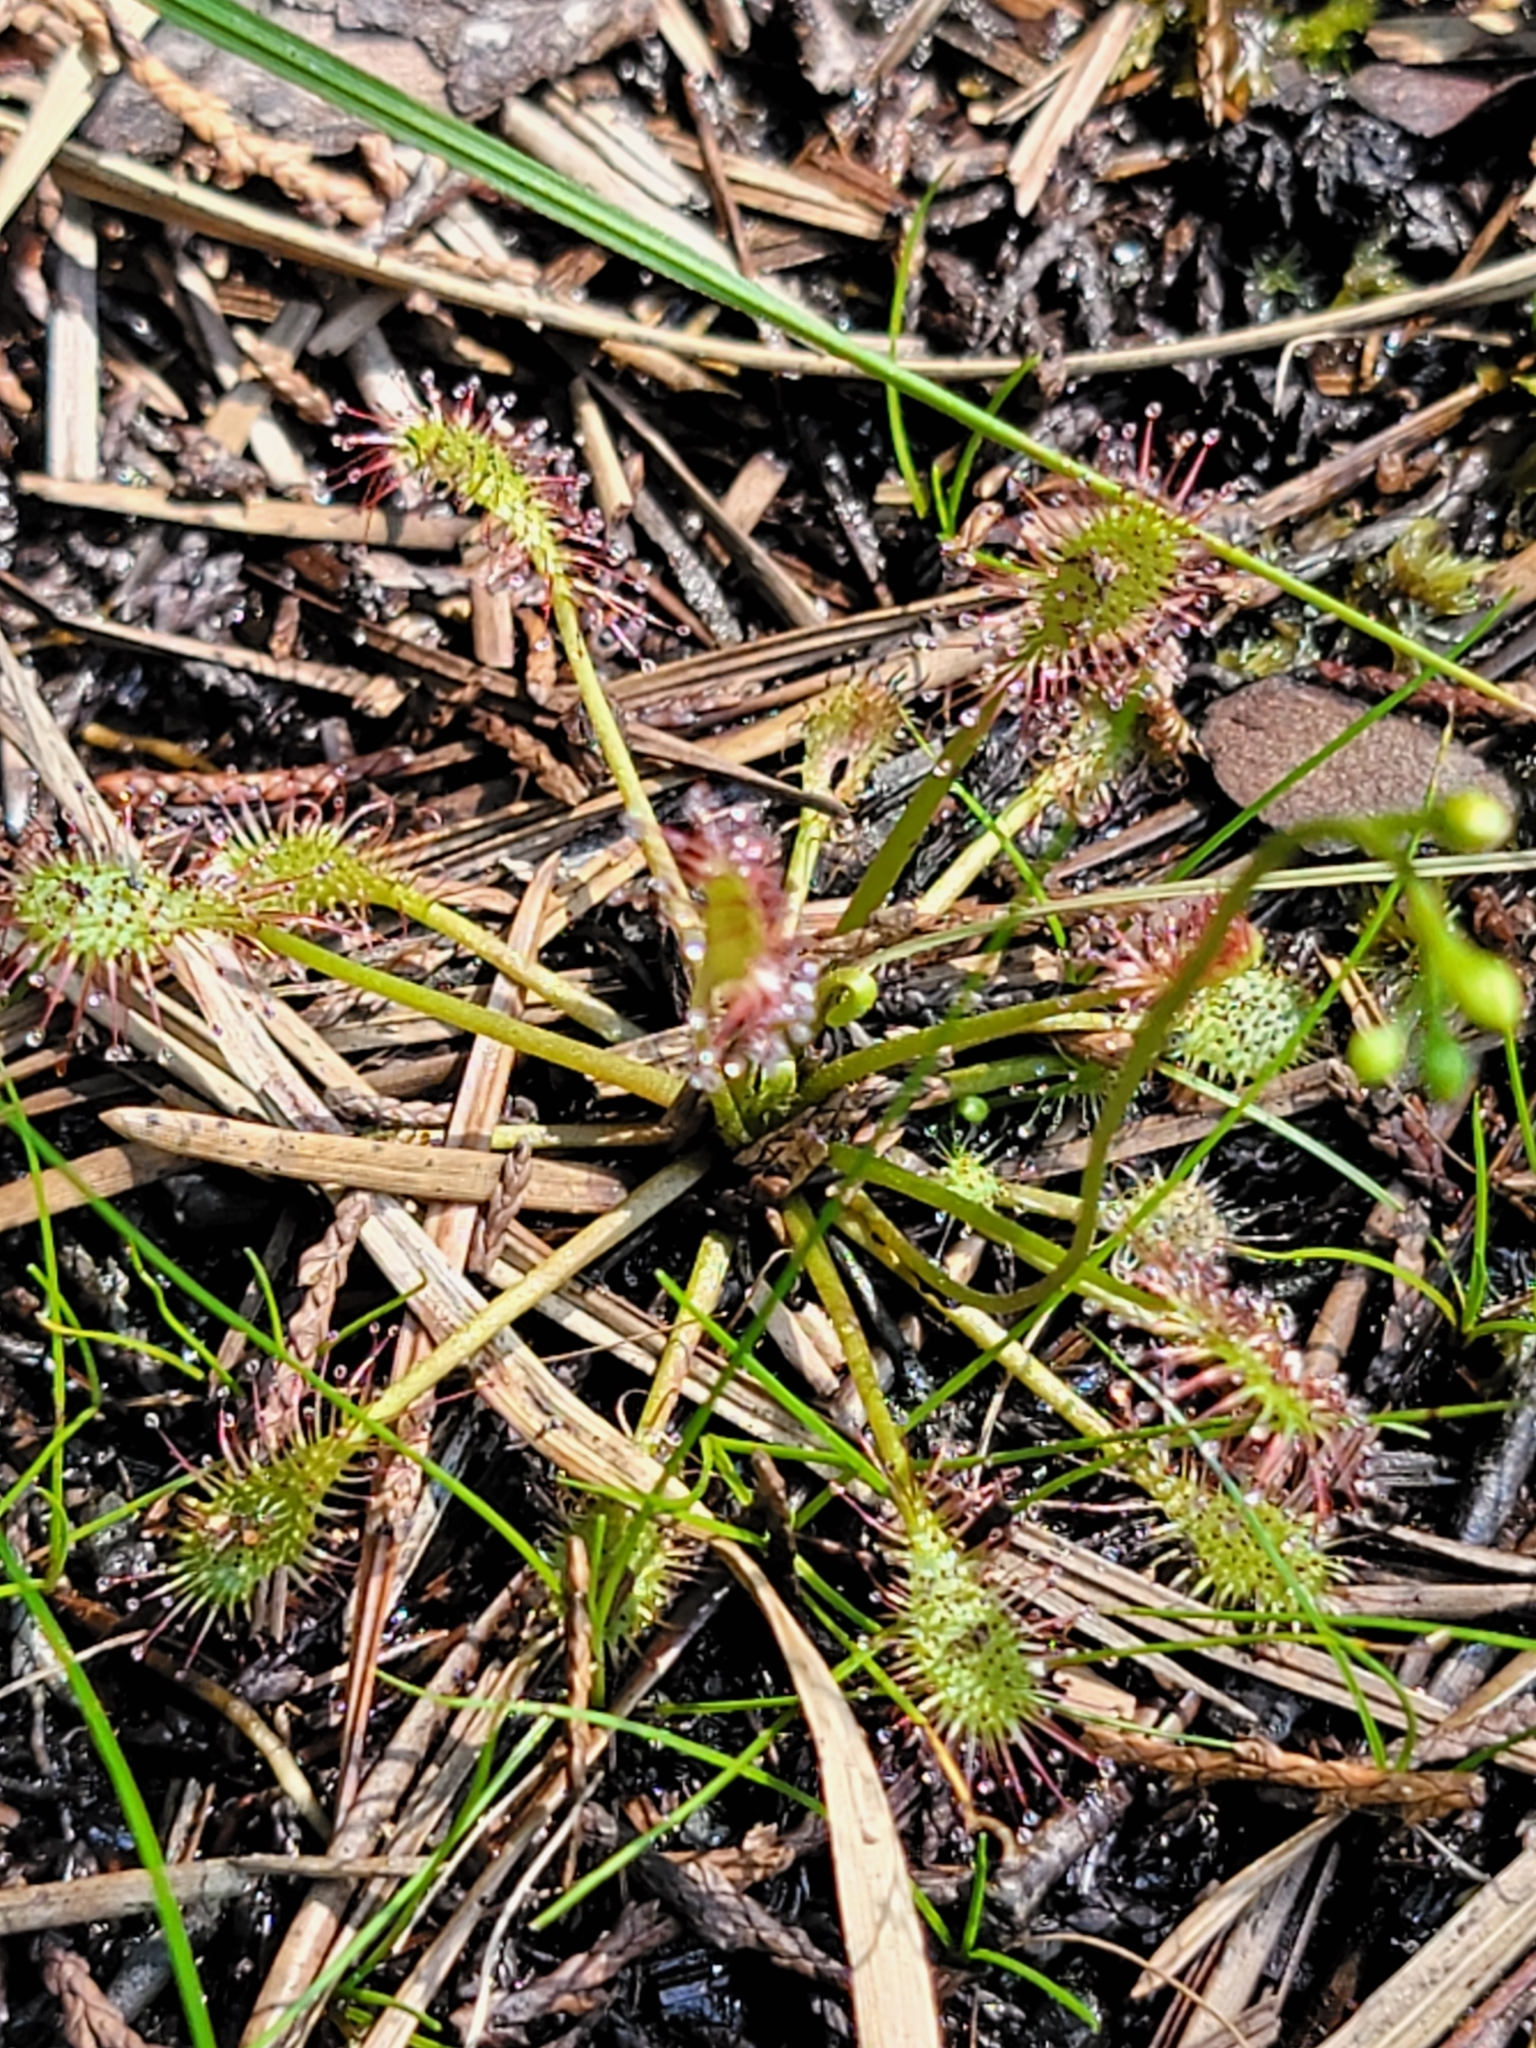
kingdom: Plantae
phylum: Tracheophyta
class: Magnoliopsida
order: Caryophyllales
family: Droseraceae
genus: Drosera
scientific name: Drosera intermedia
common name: Oblong-leaved sundew
